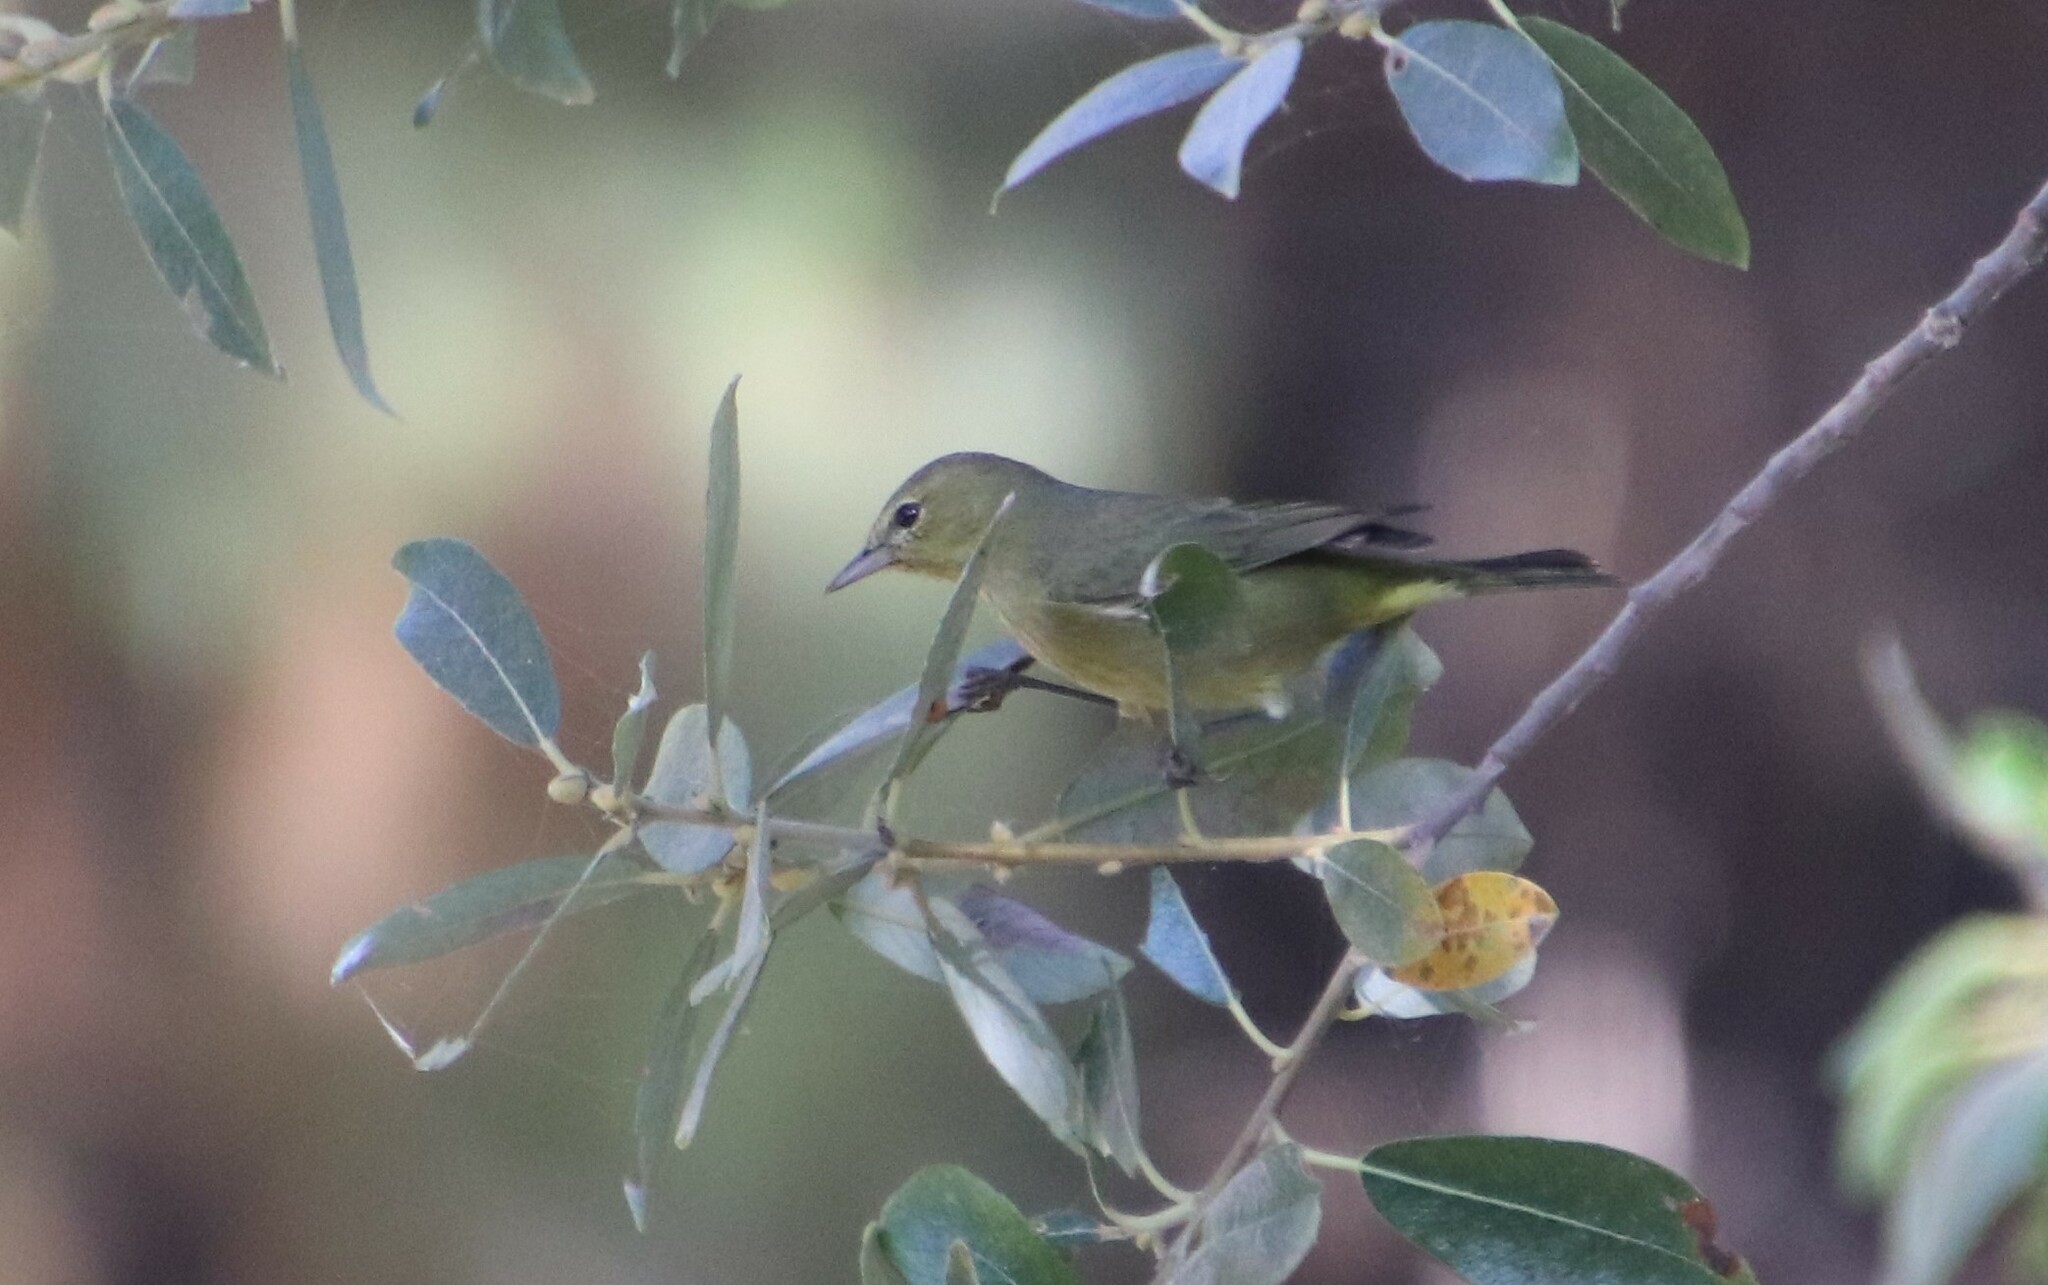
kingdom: Animalia
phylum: Chordata
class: Aves
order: Passeriformes
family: Parulidae
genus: Leiothlypis
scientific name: Leiothlypis celata
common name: Orange-crowned warbler
